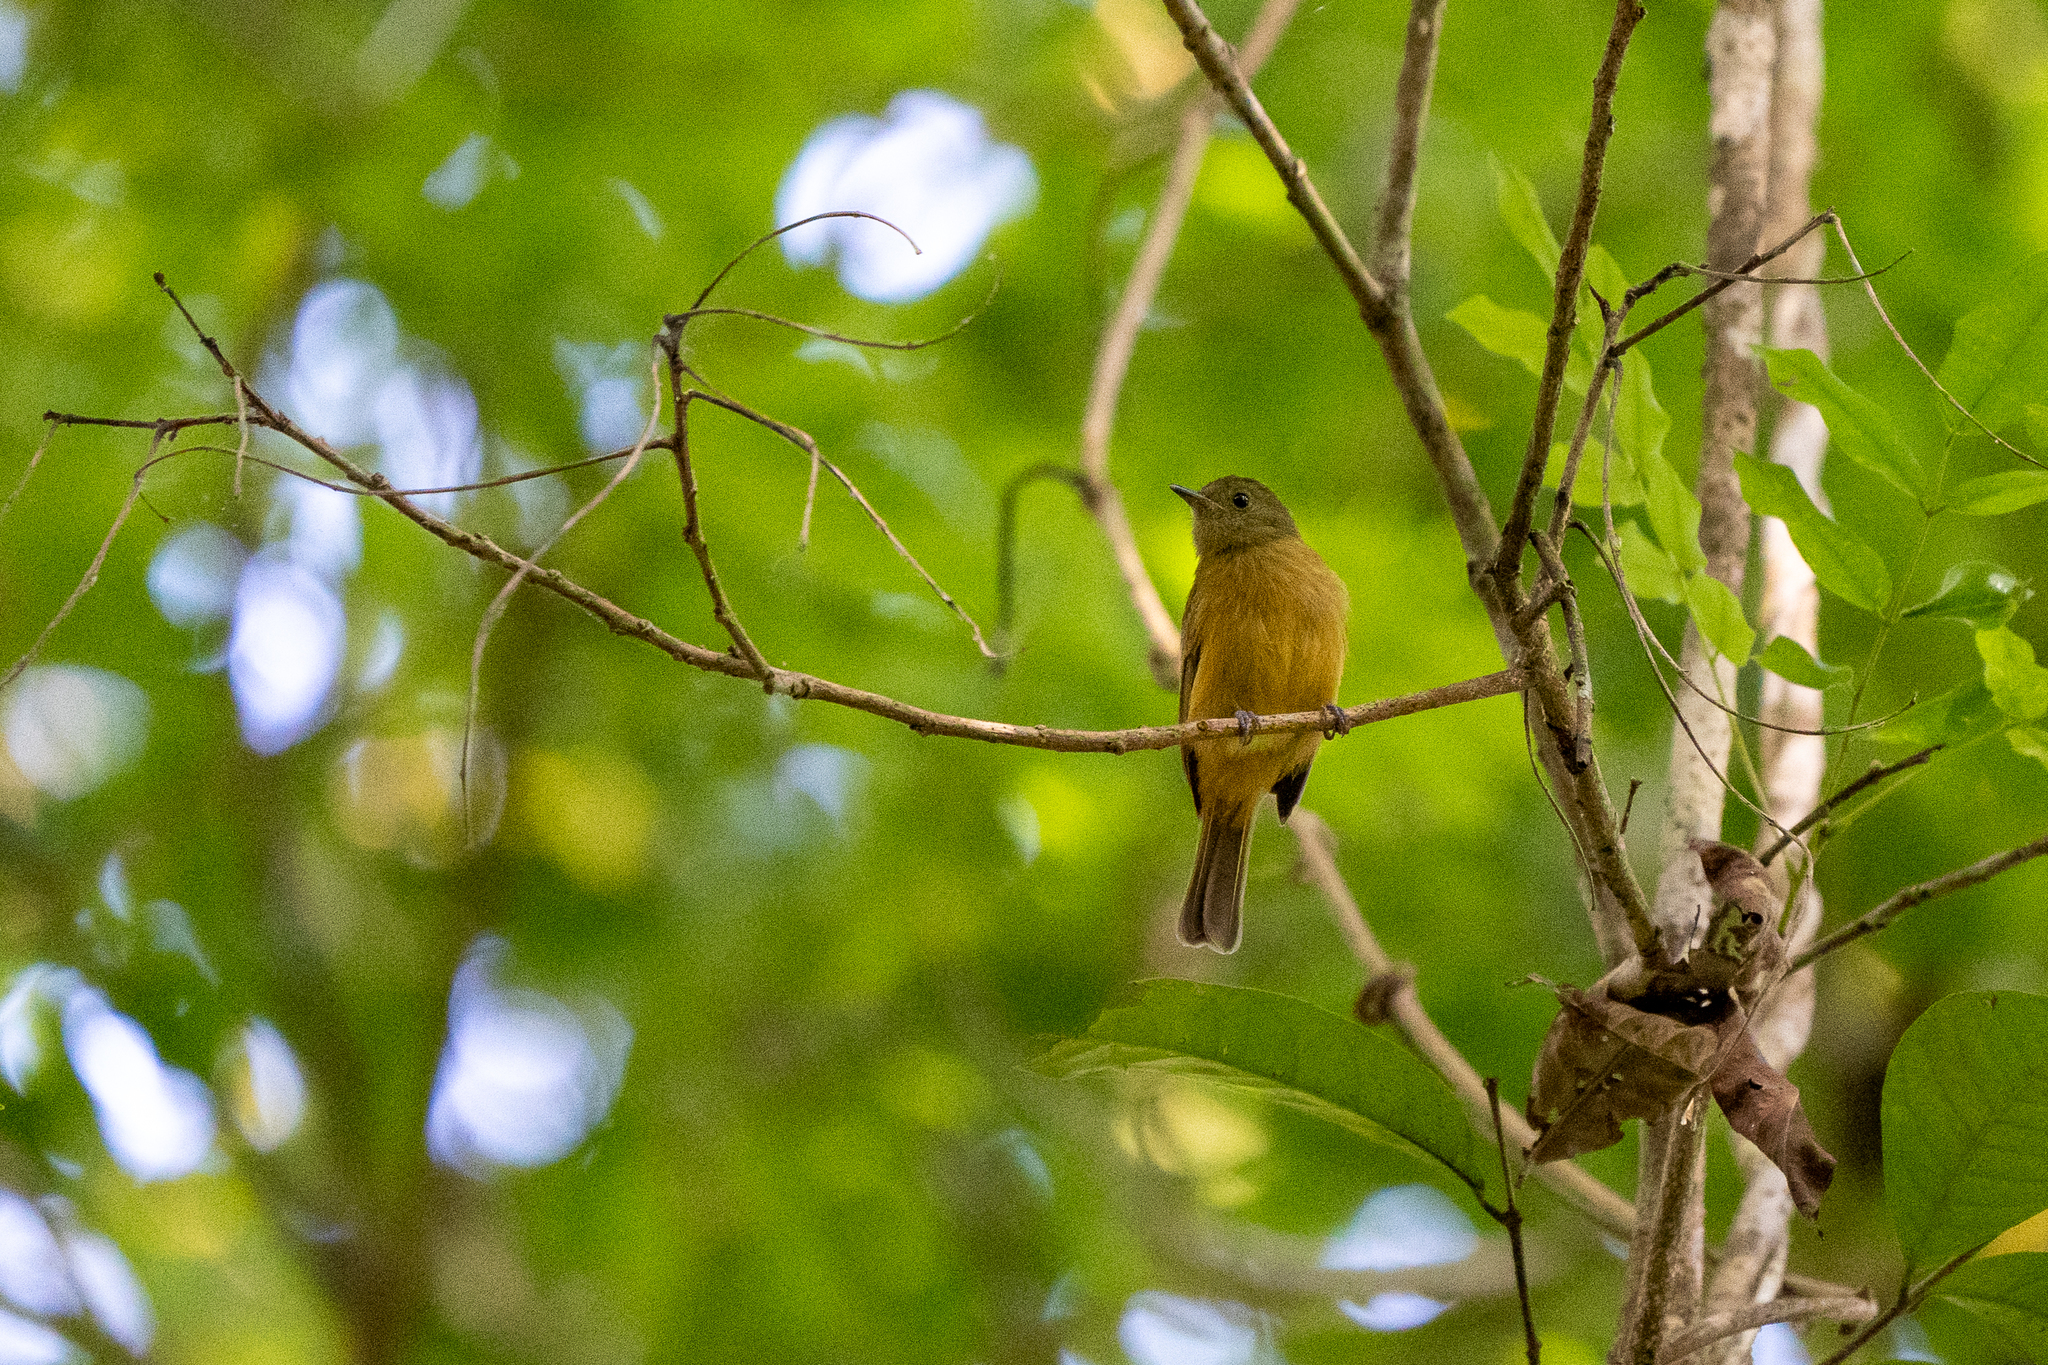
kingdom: Animalia
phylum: Chordata
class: Aves
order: Passeriformes
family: Tyrannidae
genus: Mionectes
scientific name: Mionectes oleagineus
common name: Ochre-bellied flycatcher
